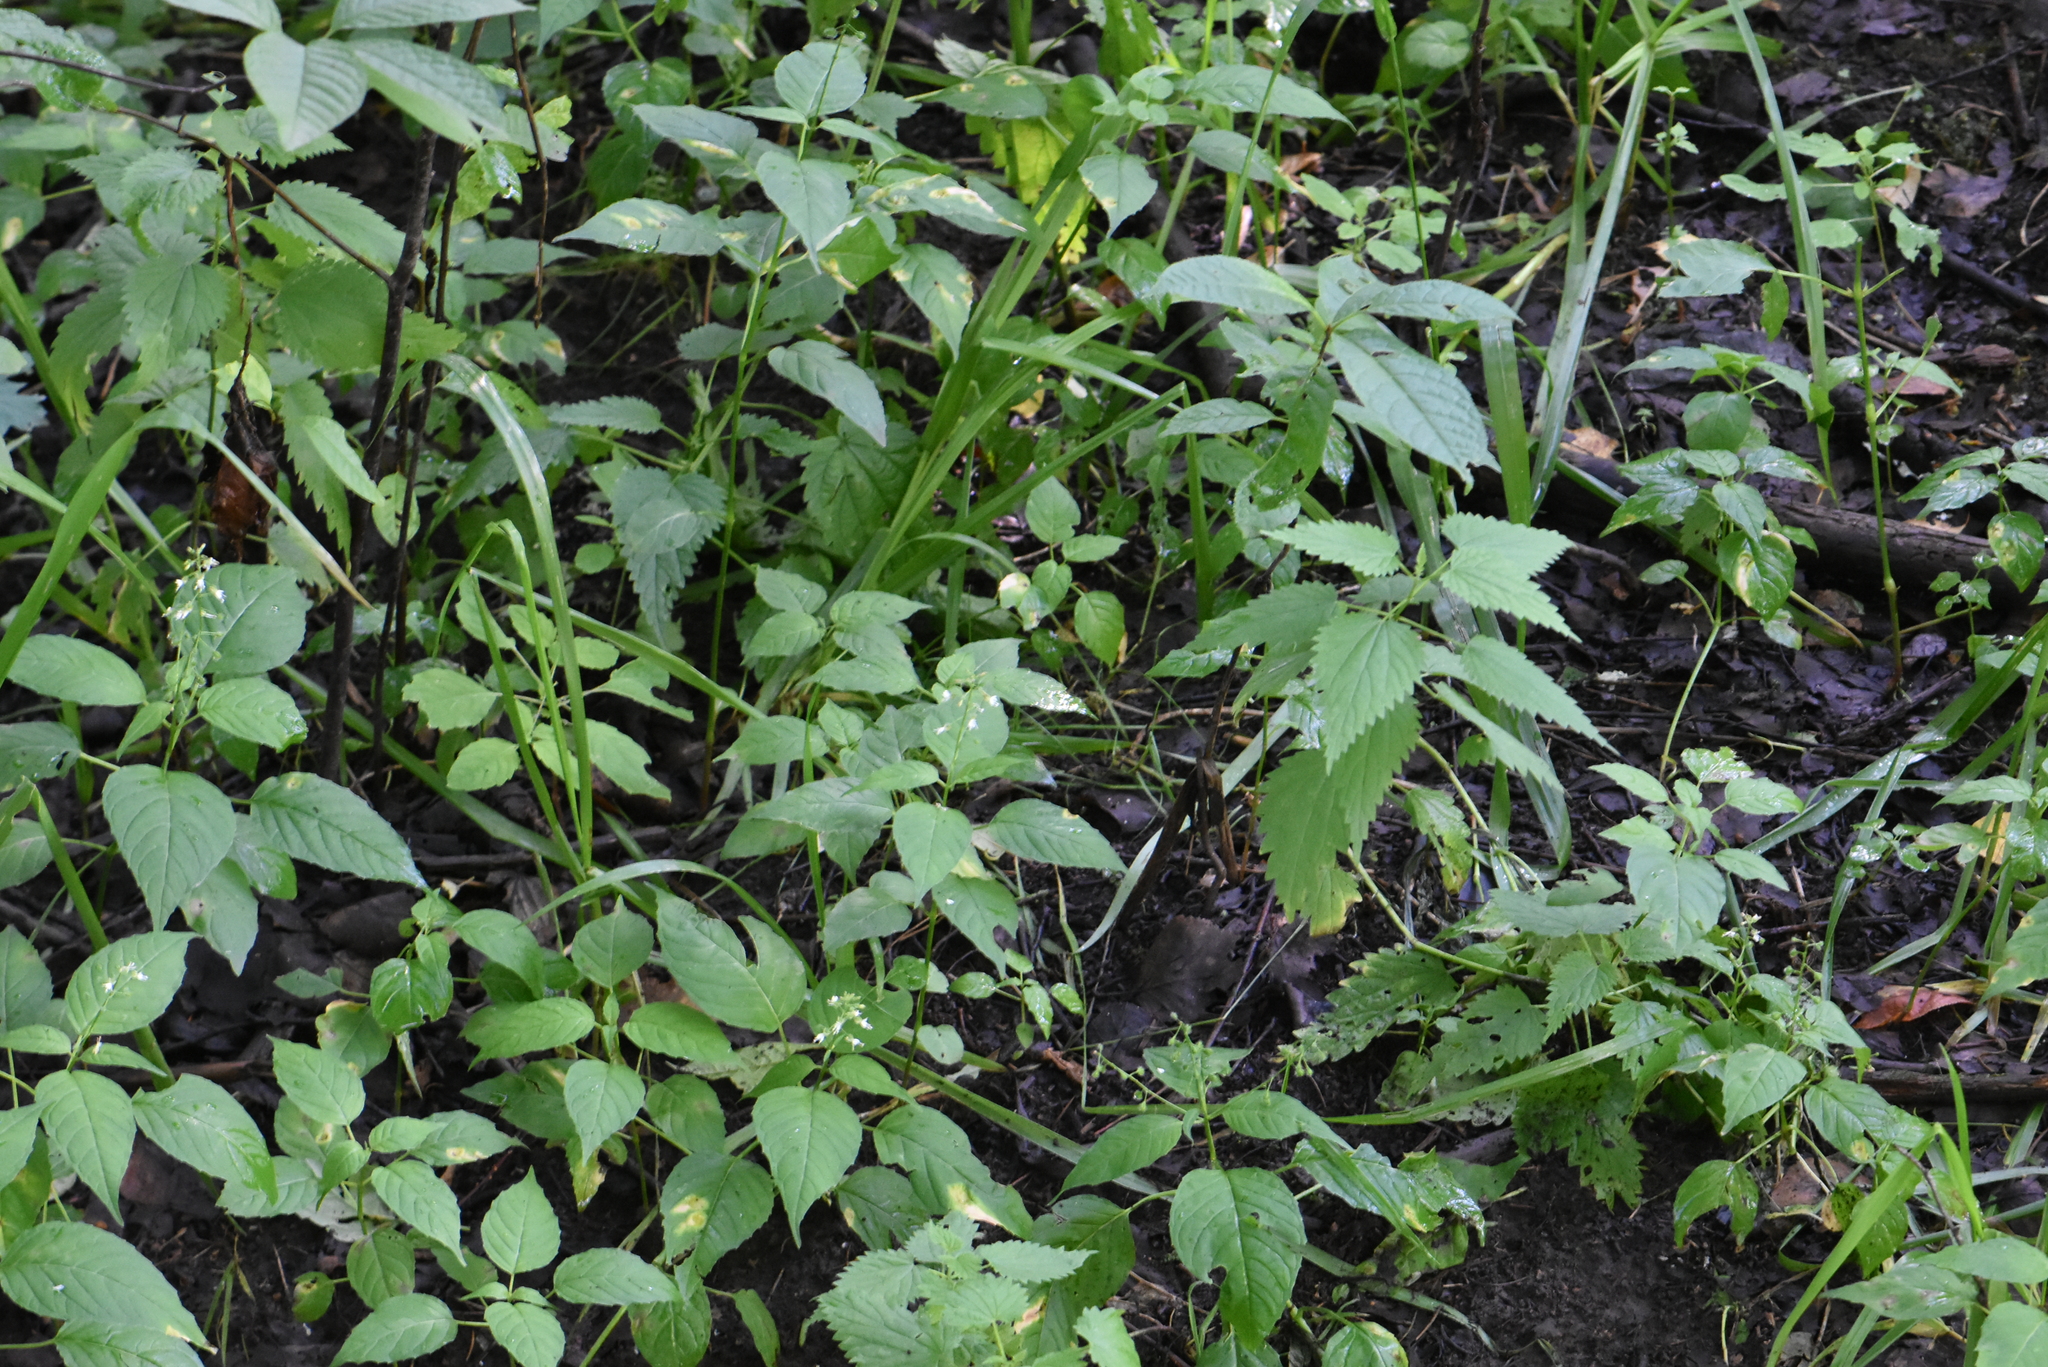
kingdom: Plantae
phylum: Tracheophyta
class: Magnoliopsida
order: Myrtales
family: Onagraceae
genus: Circaea
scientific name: Circaea canadensis
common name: Broad-leaved enchanter's nightshade
